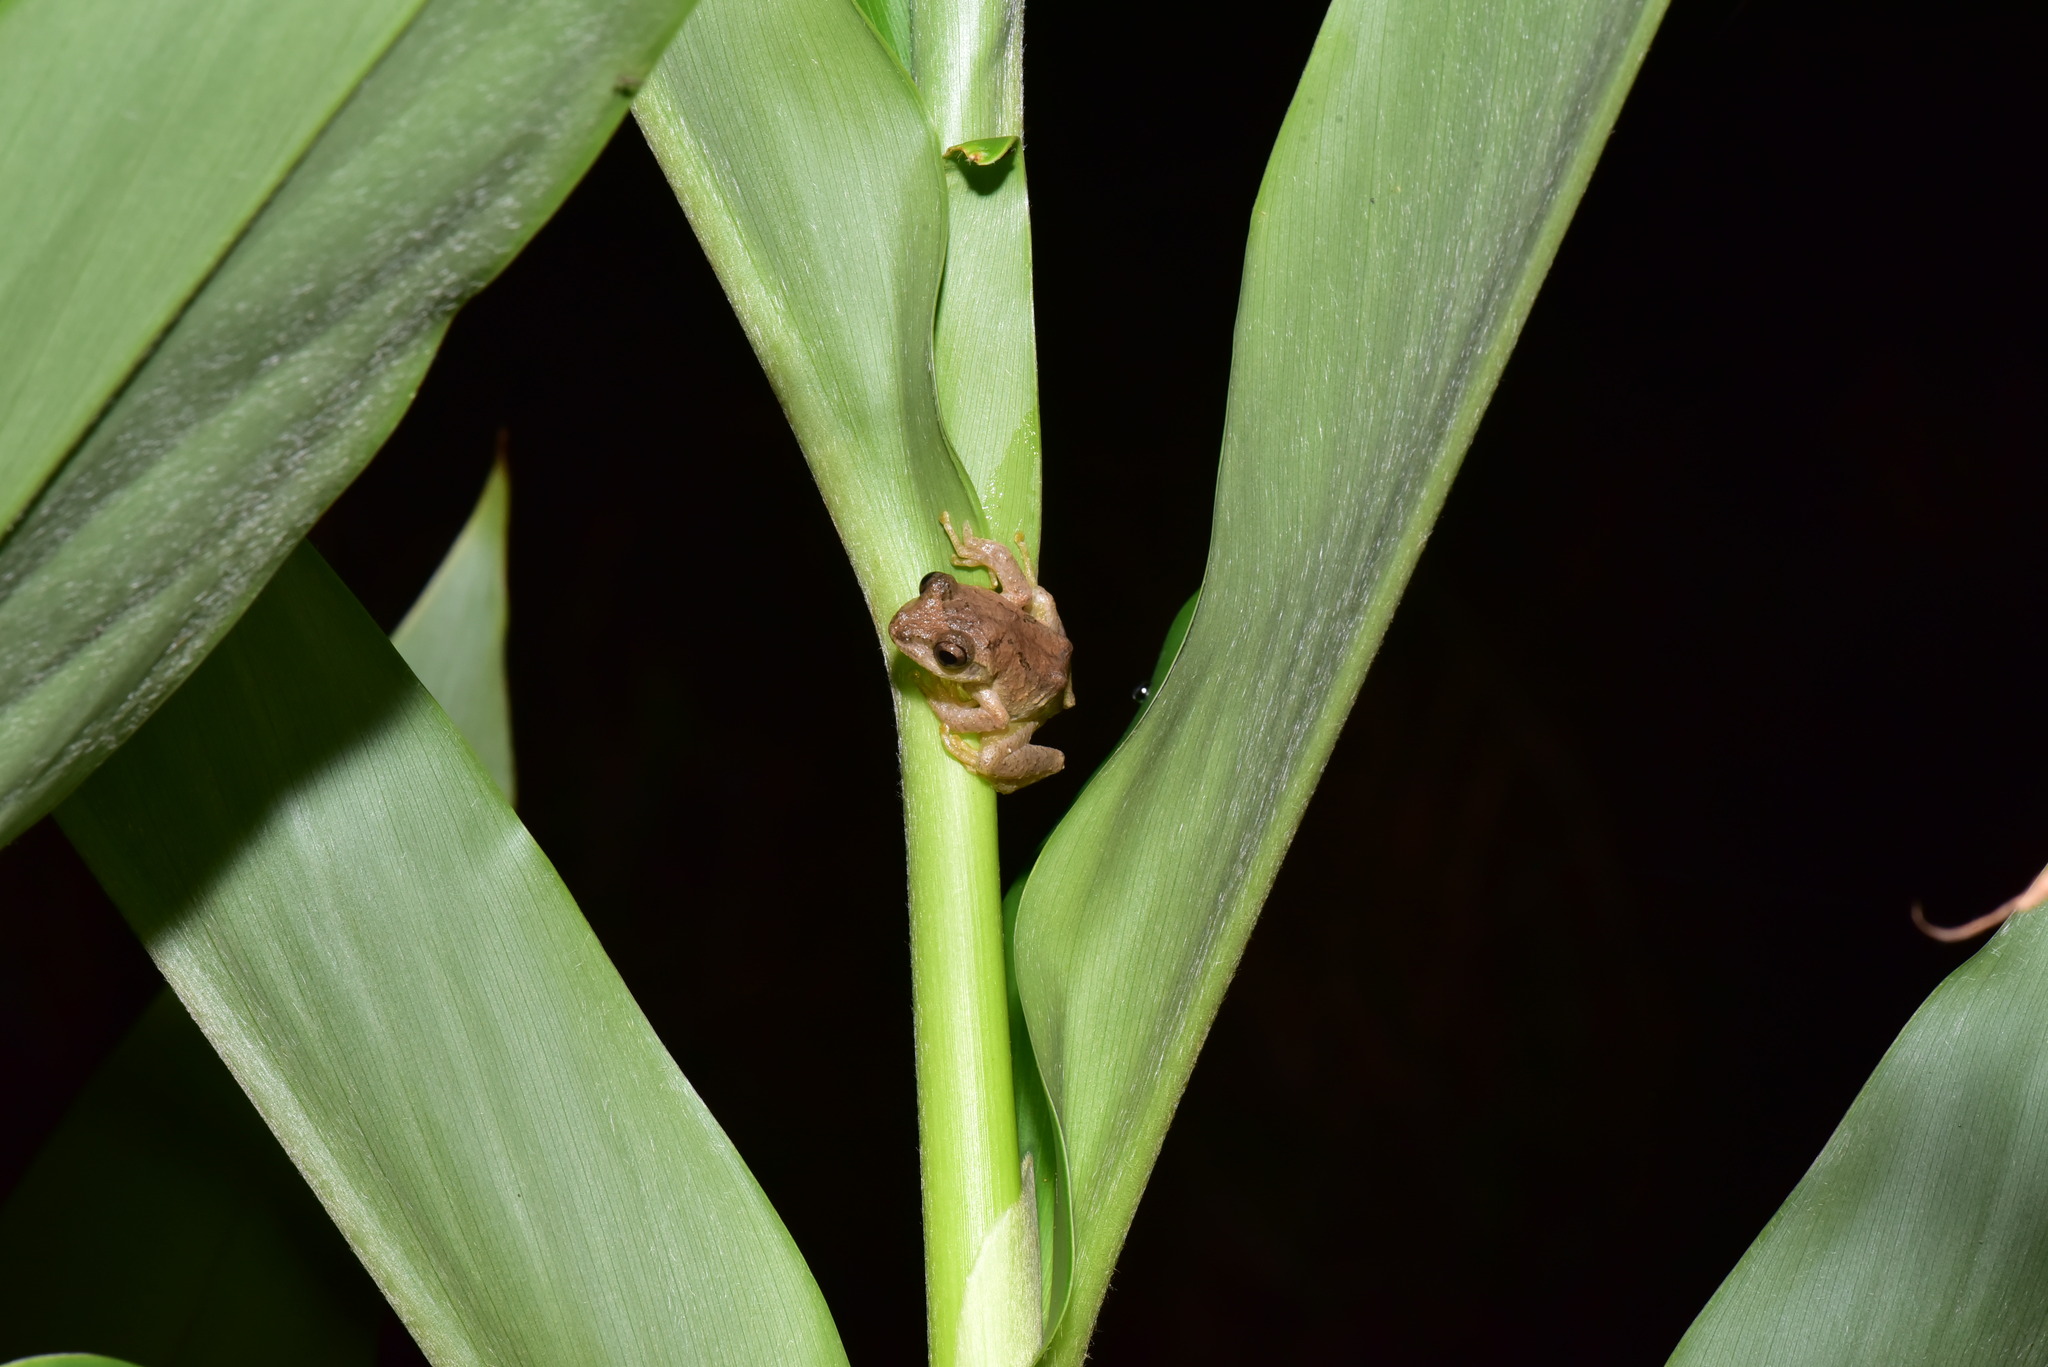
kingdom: Animalia
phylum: Chordata
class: Amphibia
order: Anura
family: Rhacophoridae
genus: Kurixalus
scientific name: Kurixalus idiootocus
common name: Temple treefrog
